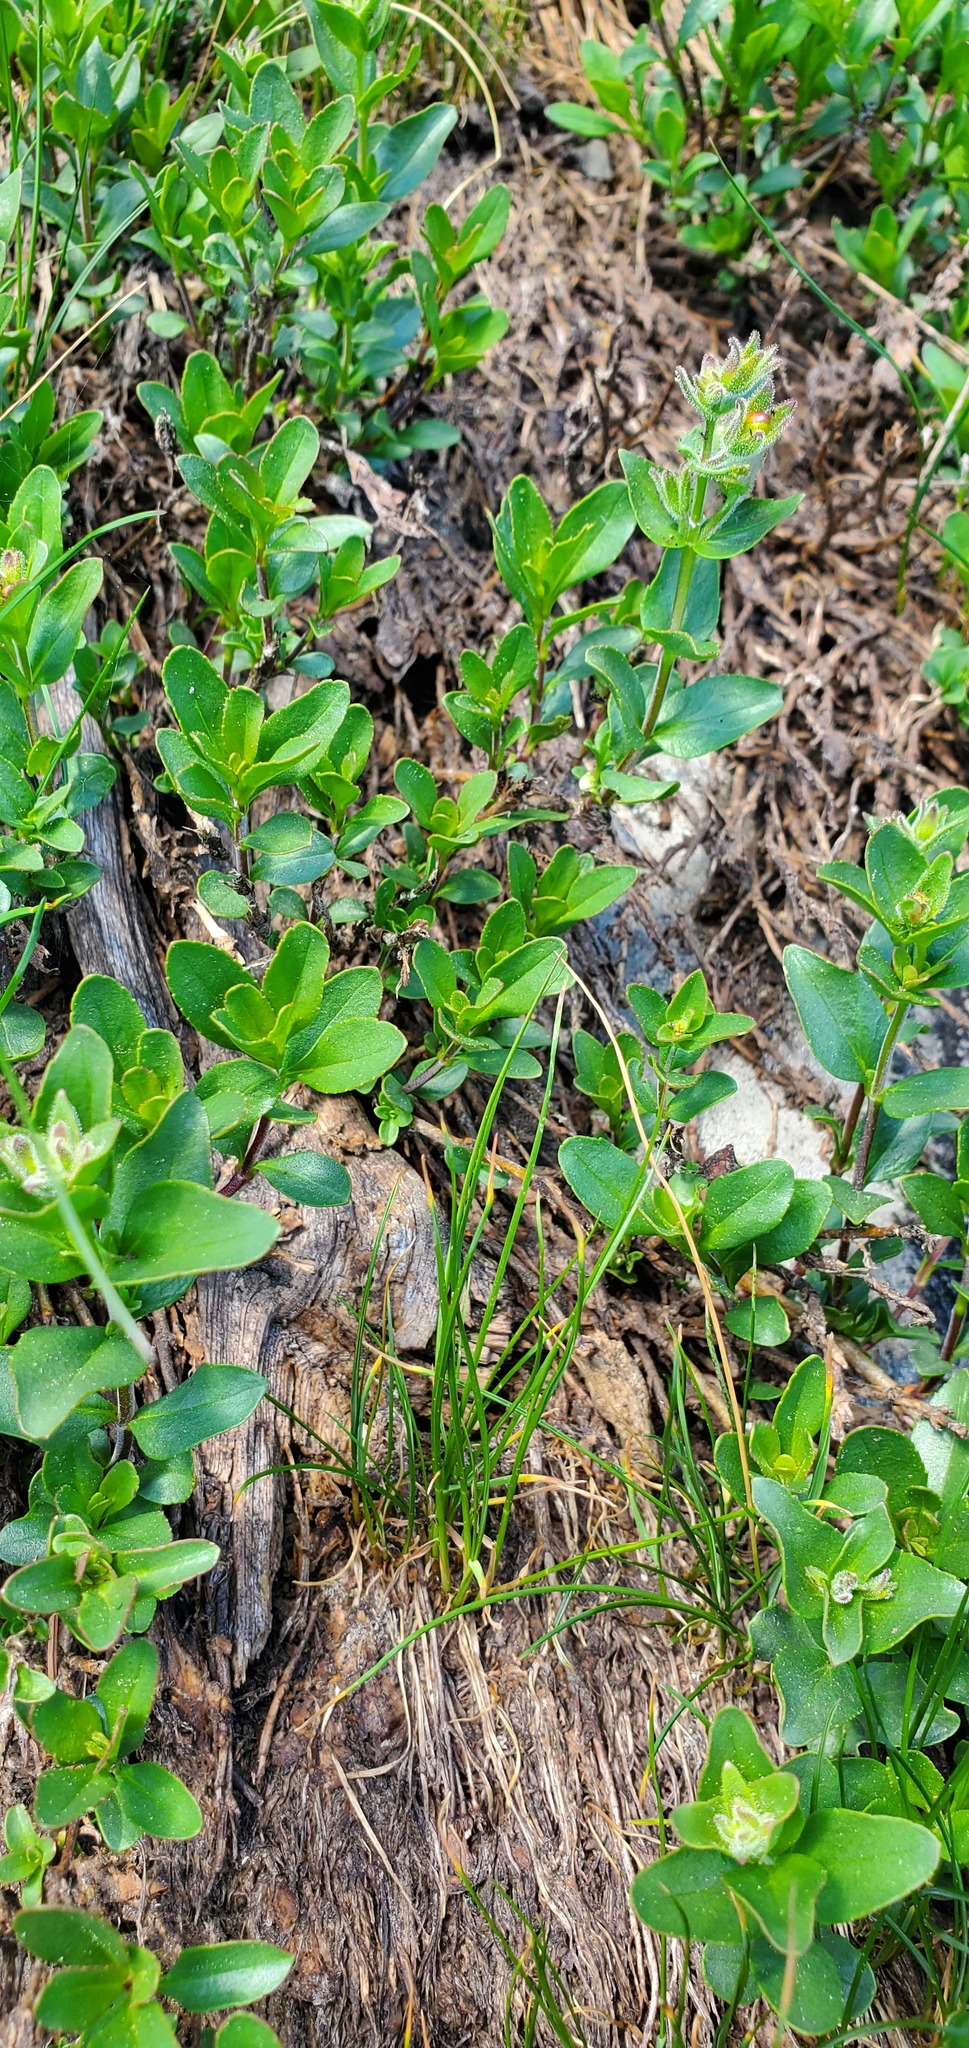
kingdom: Plantae
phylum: Tracheophyta
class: Magnoliopsida
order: Lamiales
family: Plantaginaceae
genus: Penstemon
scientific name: Penstemon ellipticus
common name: Alpine beardtongue
